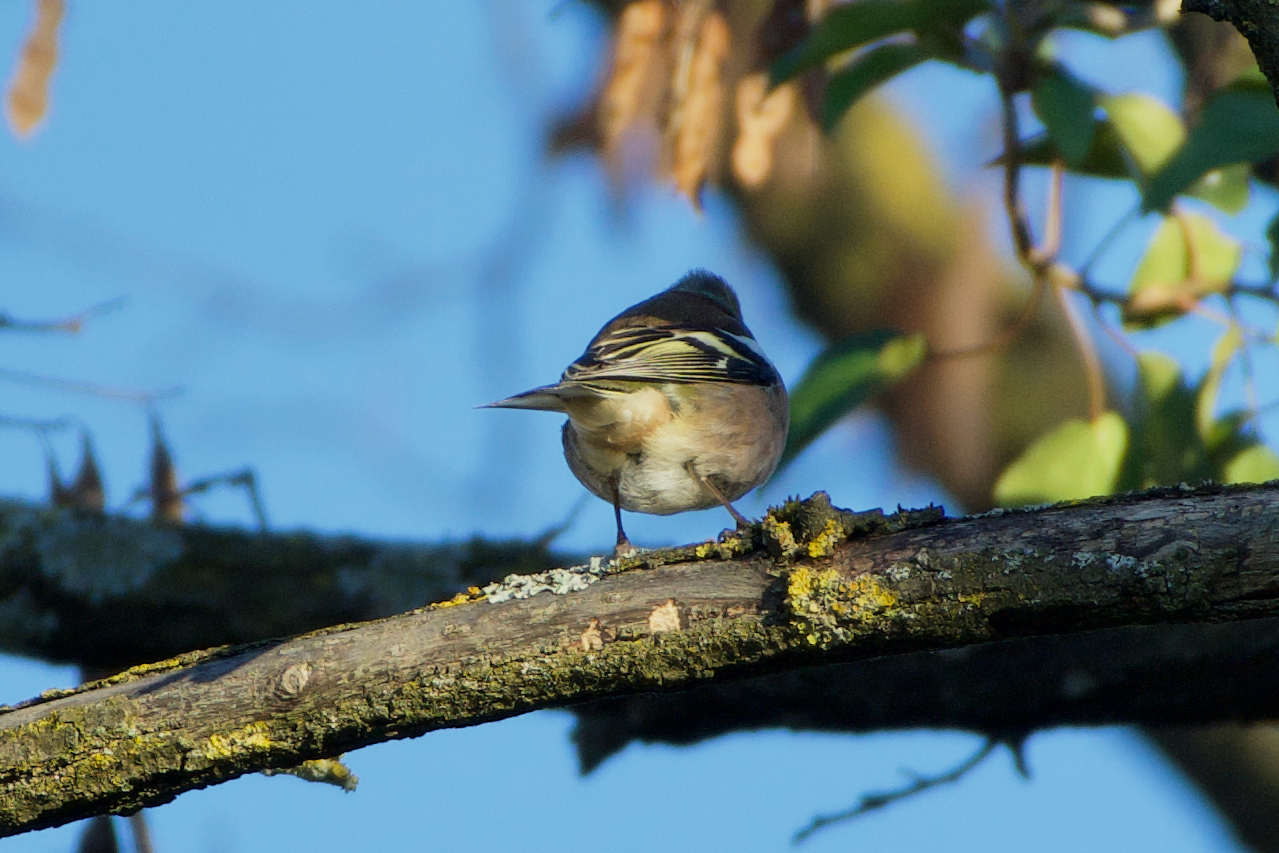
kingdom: Animalia
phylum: Chordata
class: Aves
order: Passeriformes
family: Fringillidae
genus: Fringilla
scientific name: Fringilla coelebs
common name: Common chaffinch
